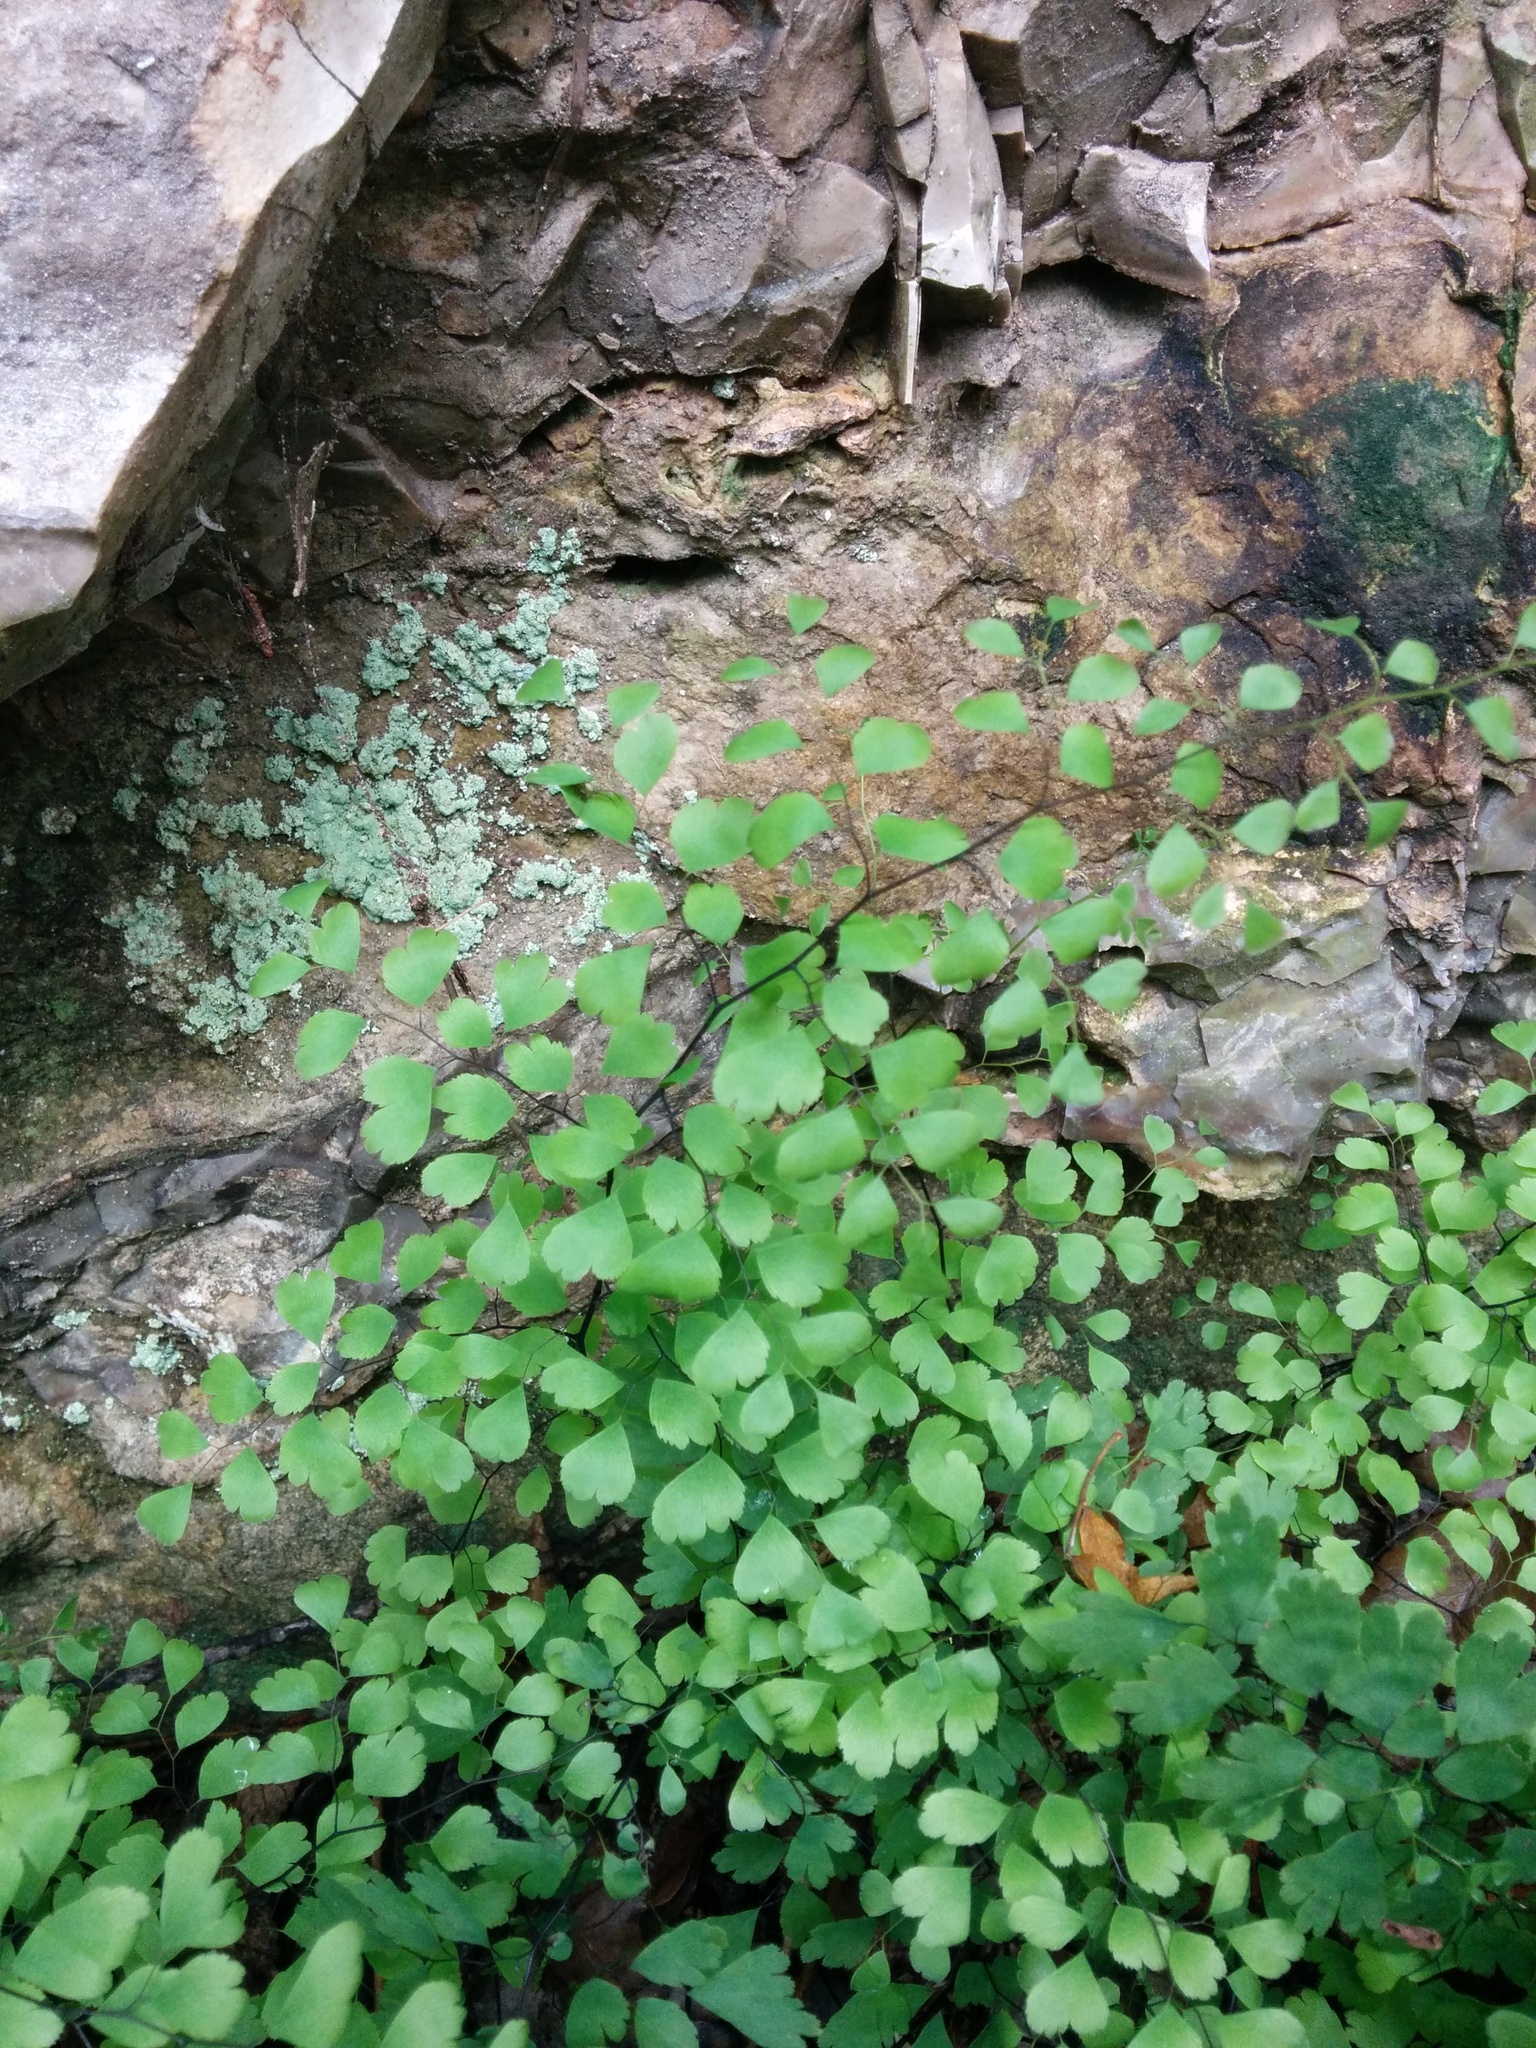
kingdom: Plantae
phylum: Tracheophyta
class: Polypodiopsida
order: Polypodiales
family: Pteridaceae
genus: Adiantum
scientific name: Adiantum capillus-veneris
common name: Maidenhair fern
